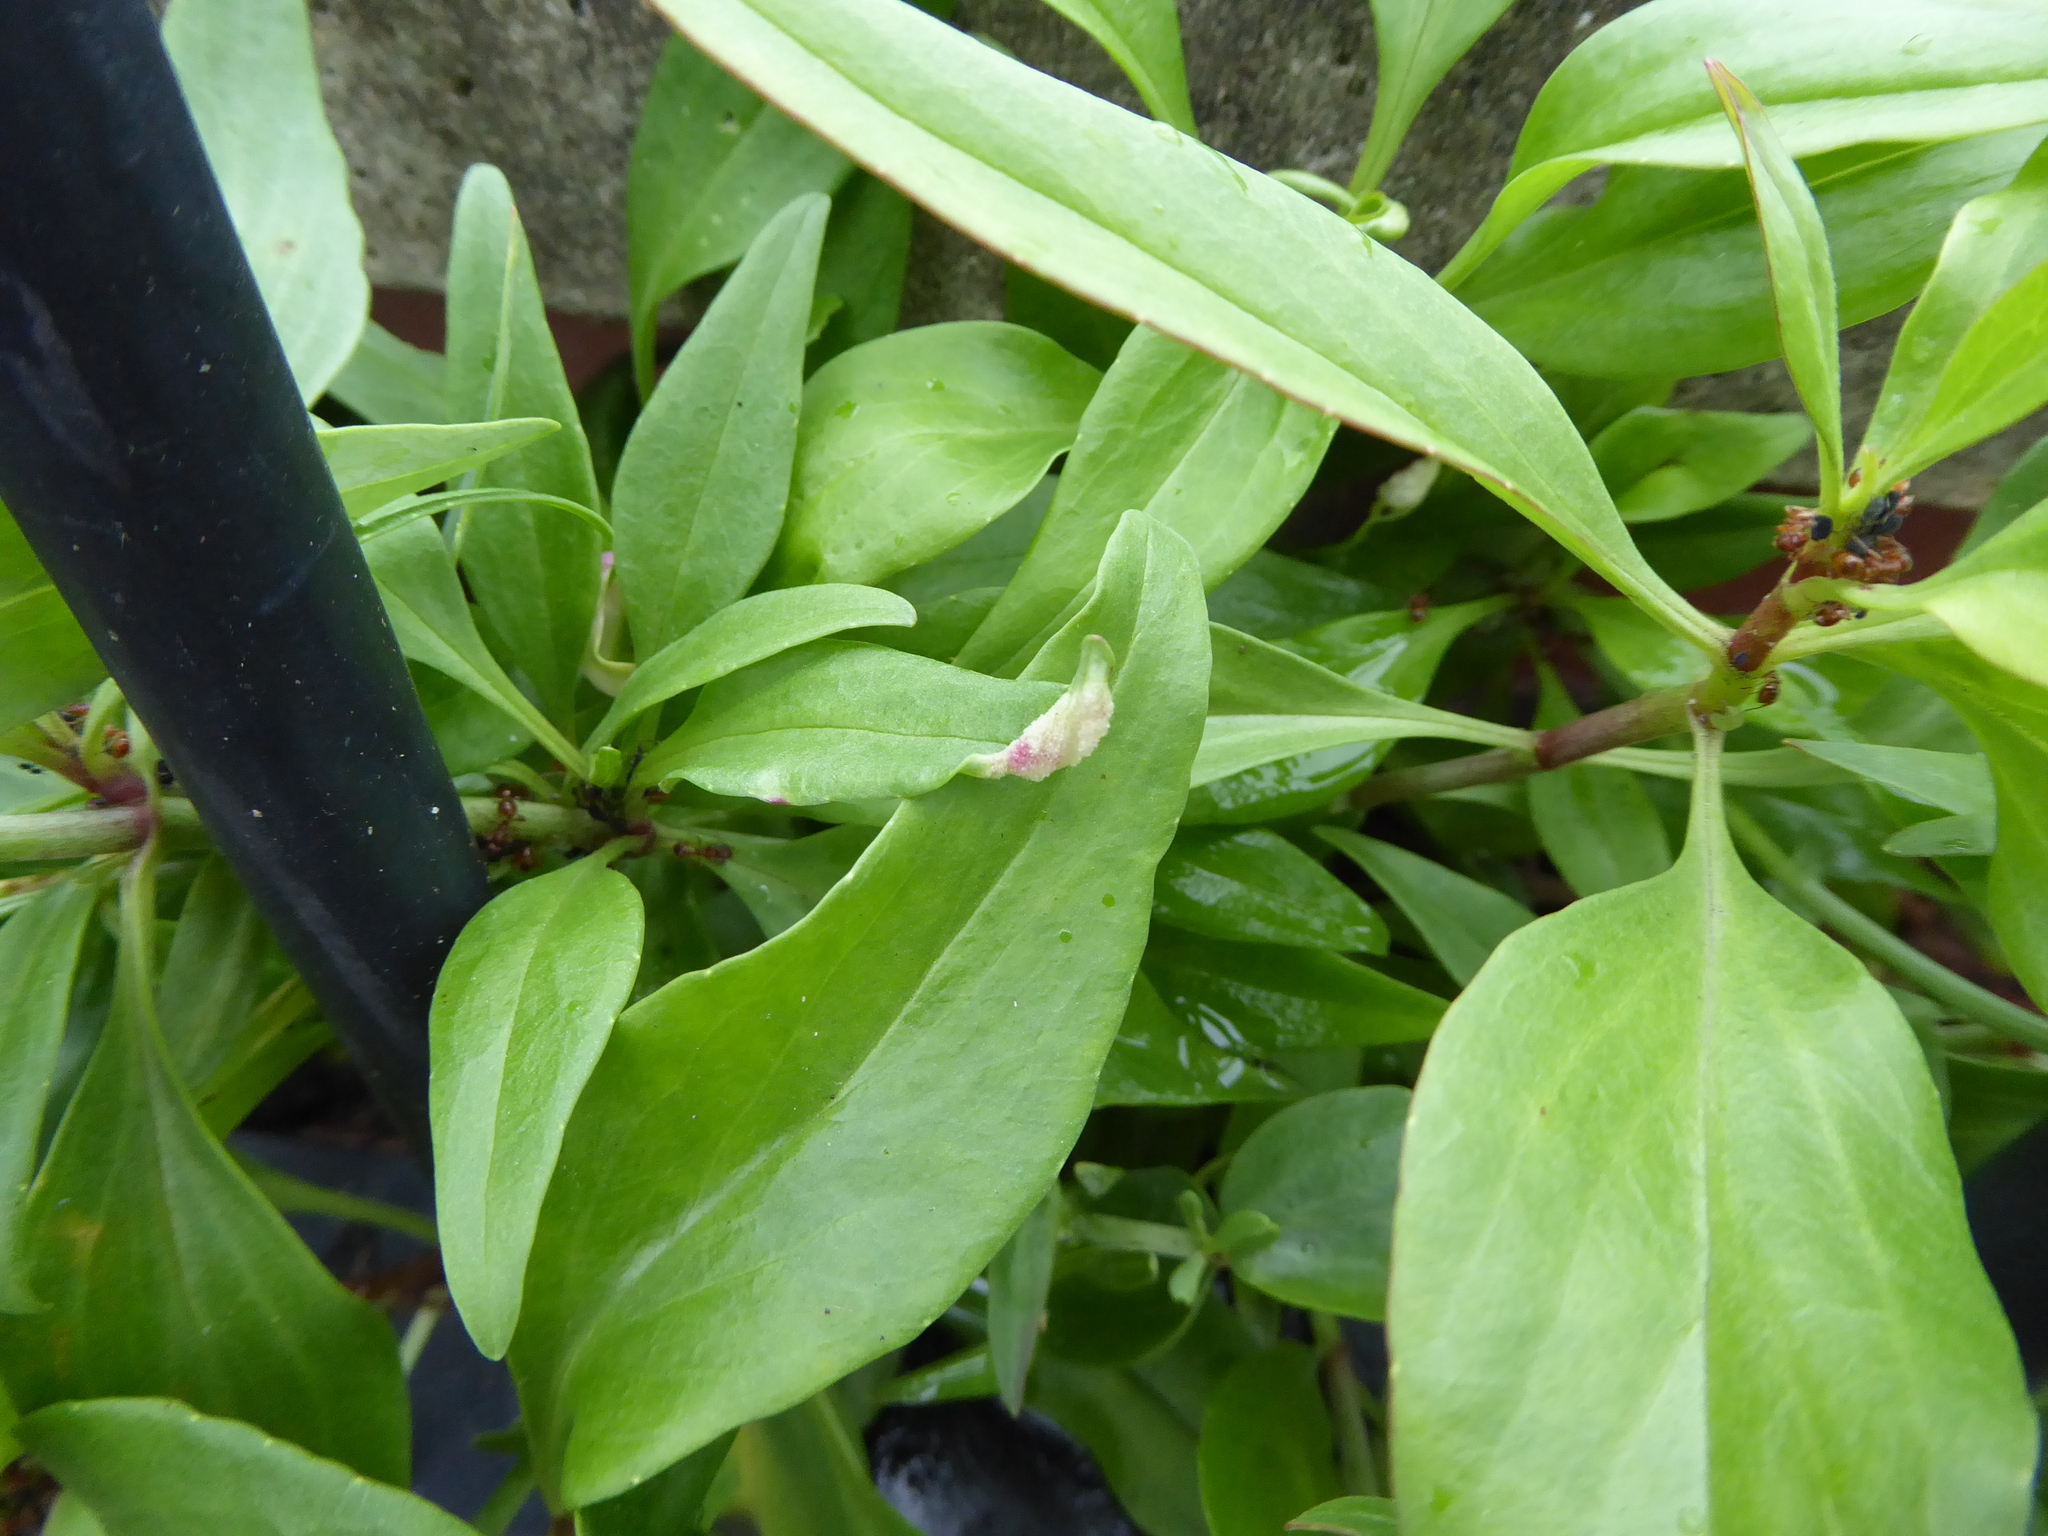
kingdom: Animalia
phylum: Arthropoda
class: Insecta
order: Hemiptera
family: Triozidae
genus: Trioza
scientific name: Trioza centranthi
